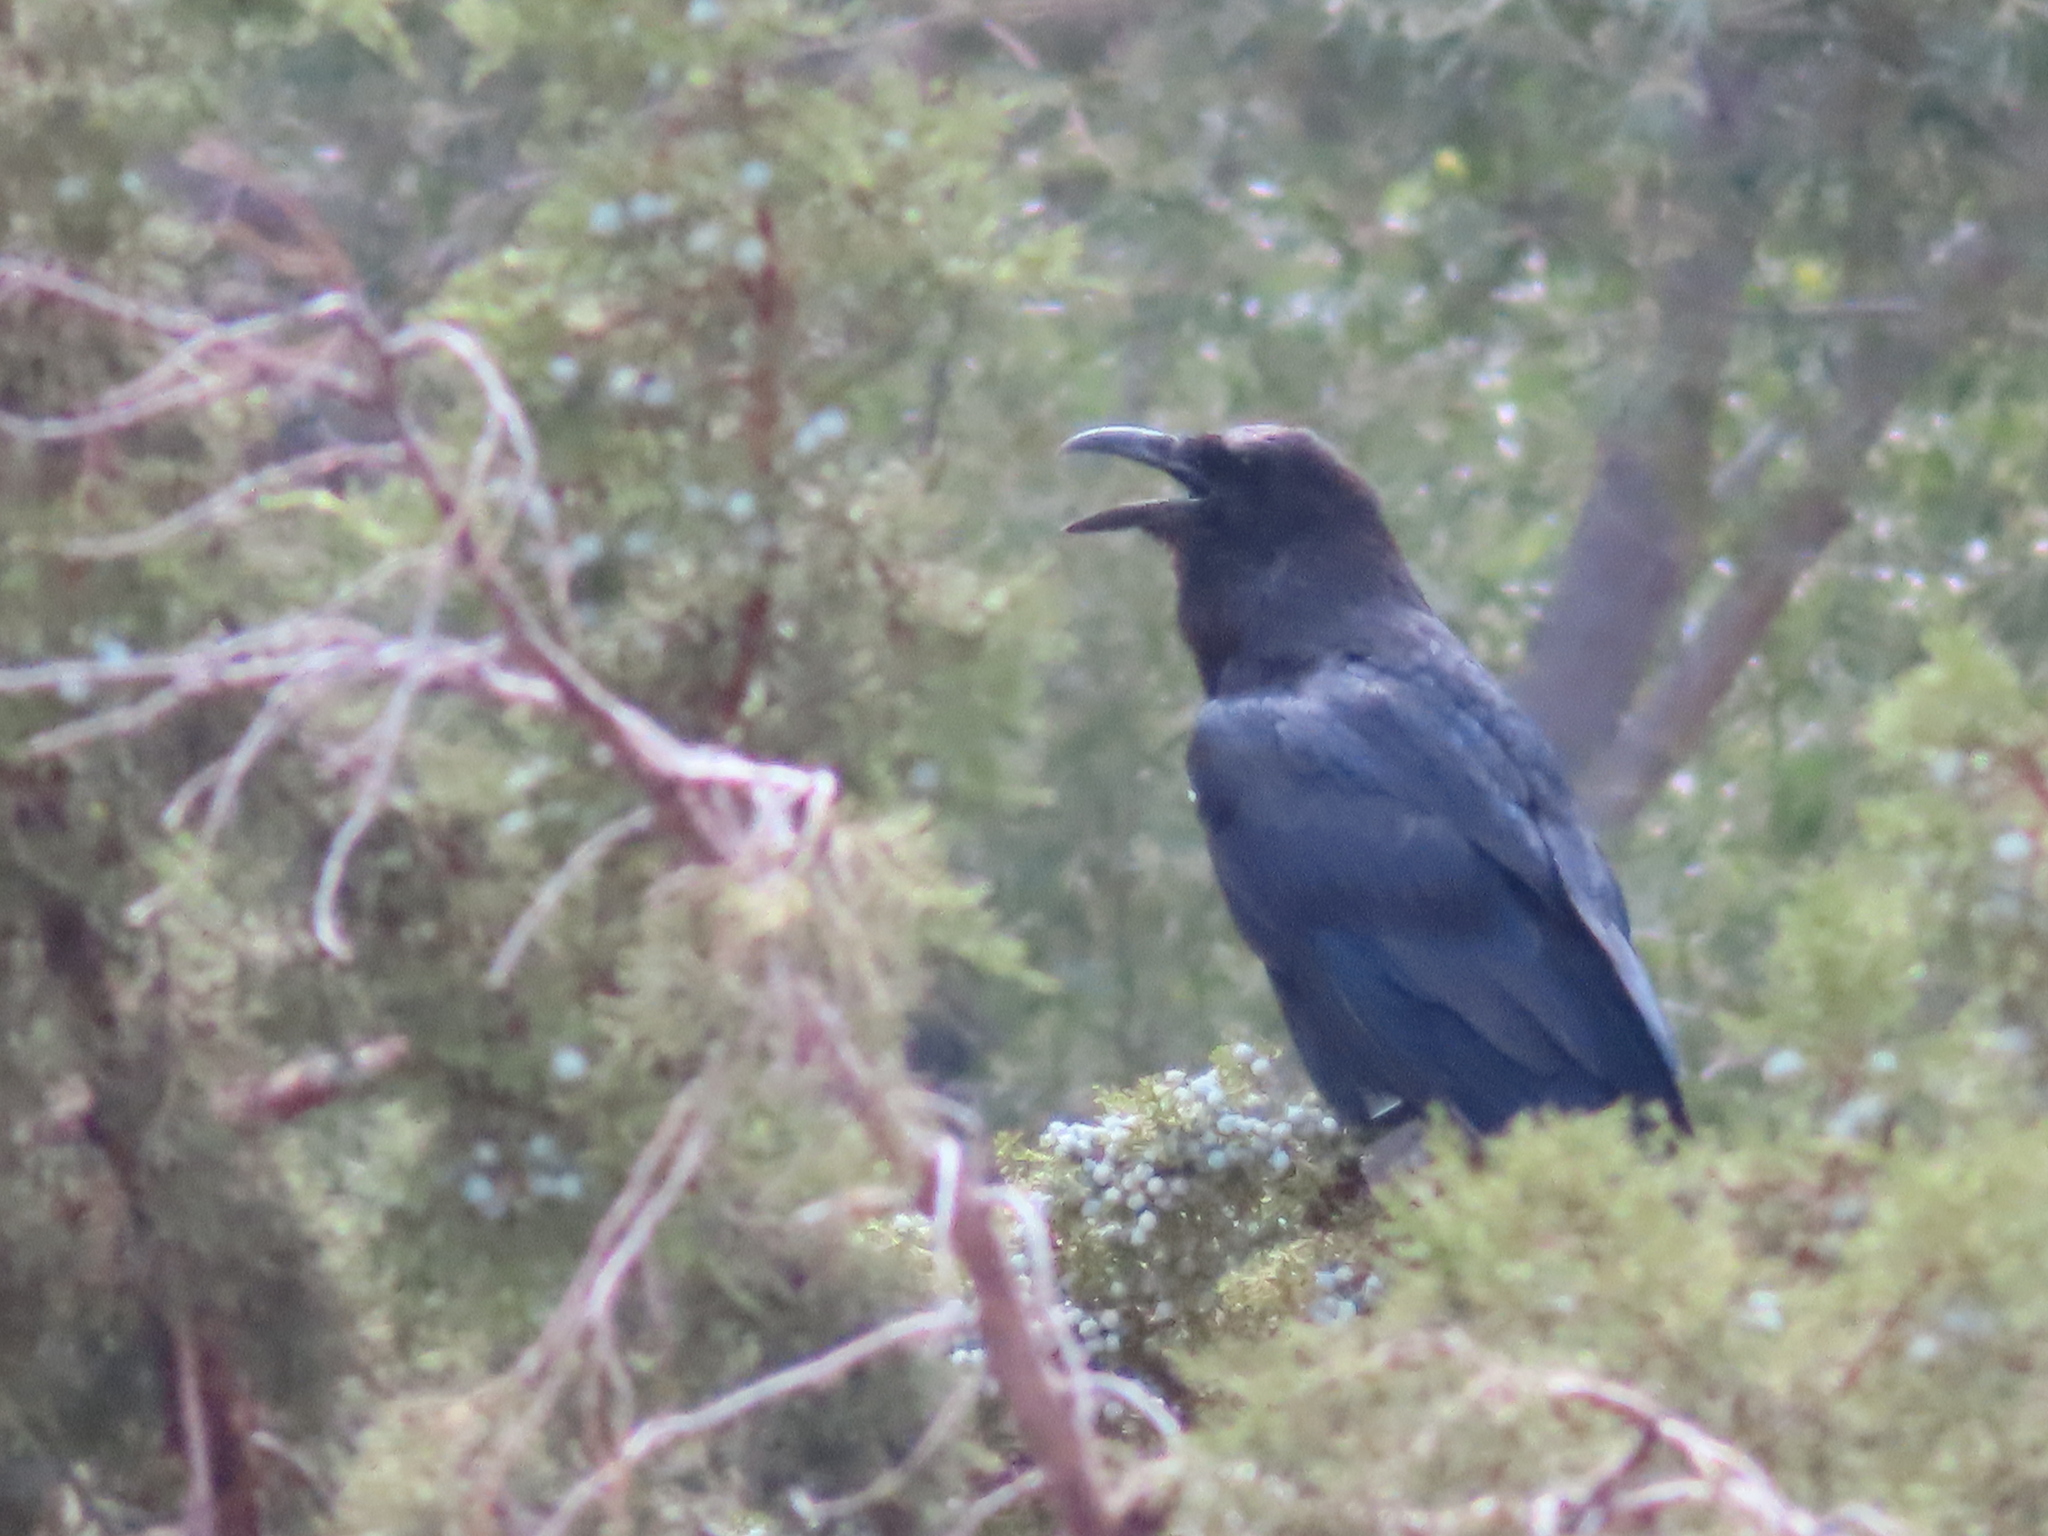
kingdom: Animalia
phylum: Chordata
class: Aves
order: Passeriformes
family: Corvidae
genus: Corvus
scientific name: Corvus corax
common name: Common raven
